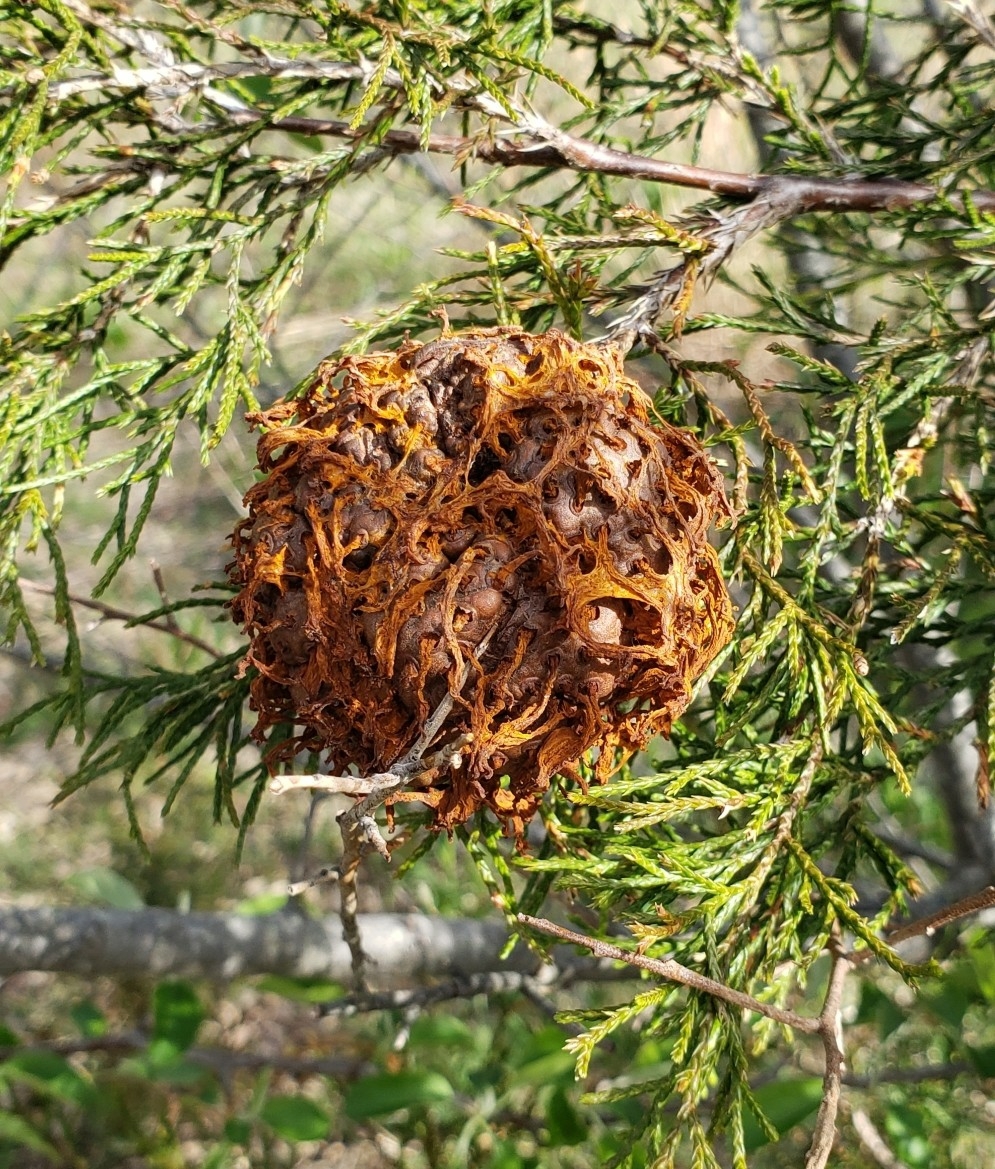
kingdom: Fungi
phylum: Basidiomycota
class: Pucciniomycetes
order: Pucciniales
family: Gymnosporangiaceae
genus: Gymnosporangium
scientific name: Gymnosporangium juniperi-virginianae
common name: Juniper-apple rust
